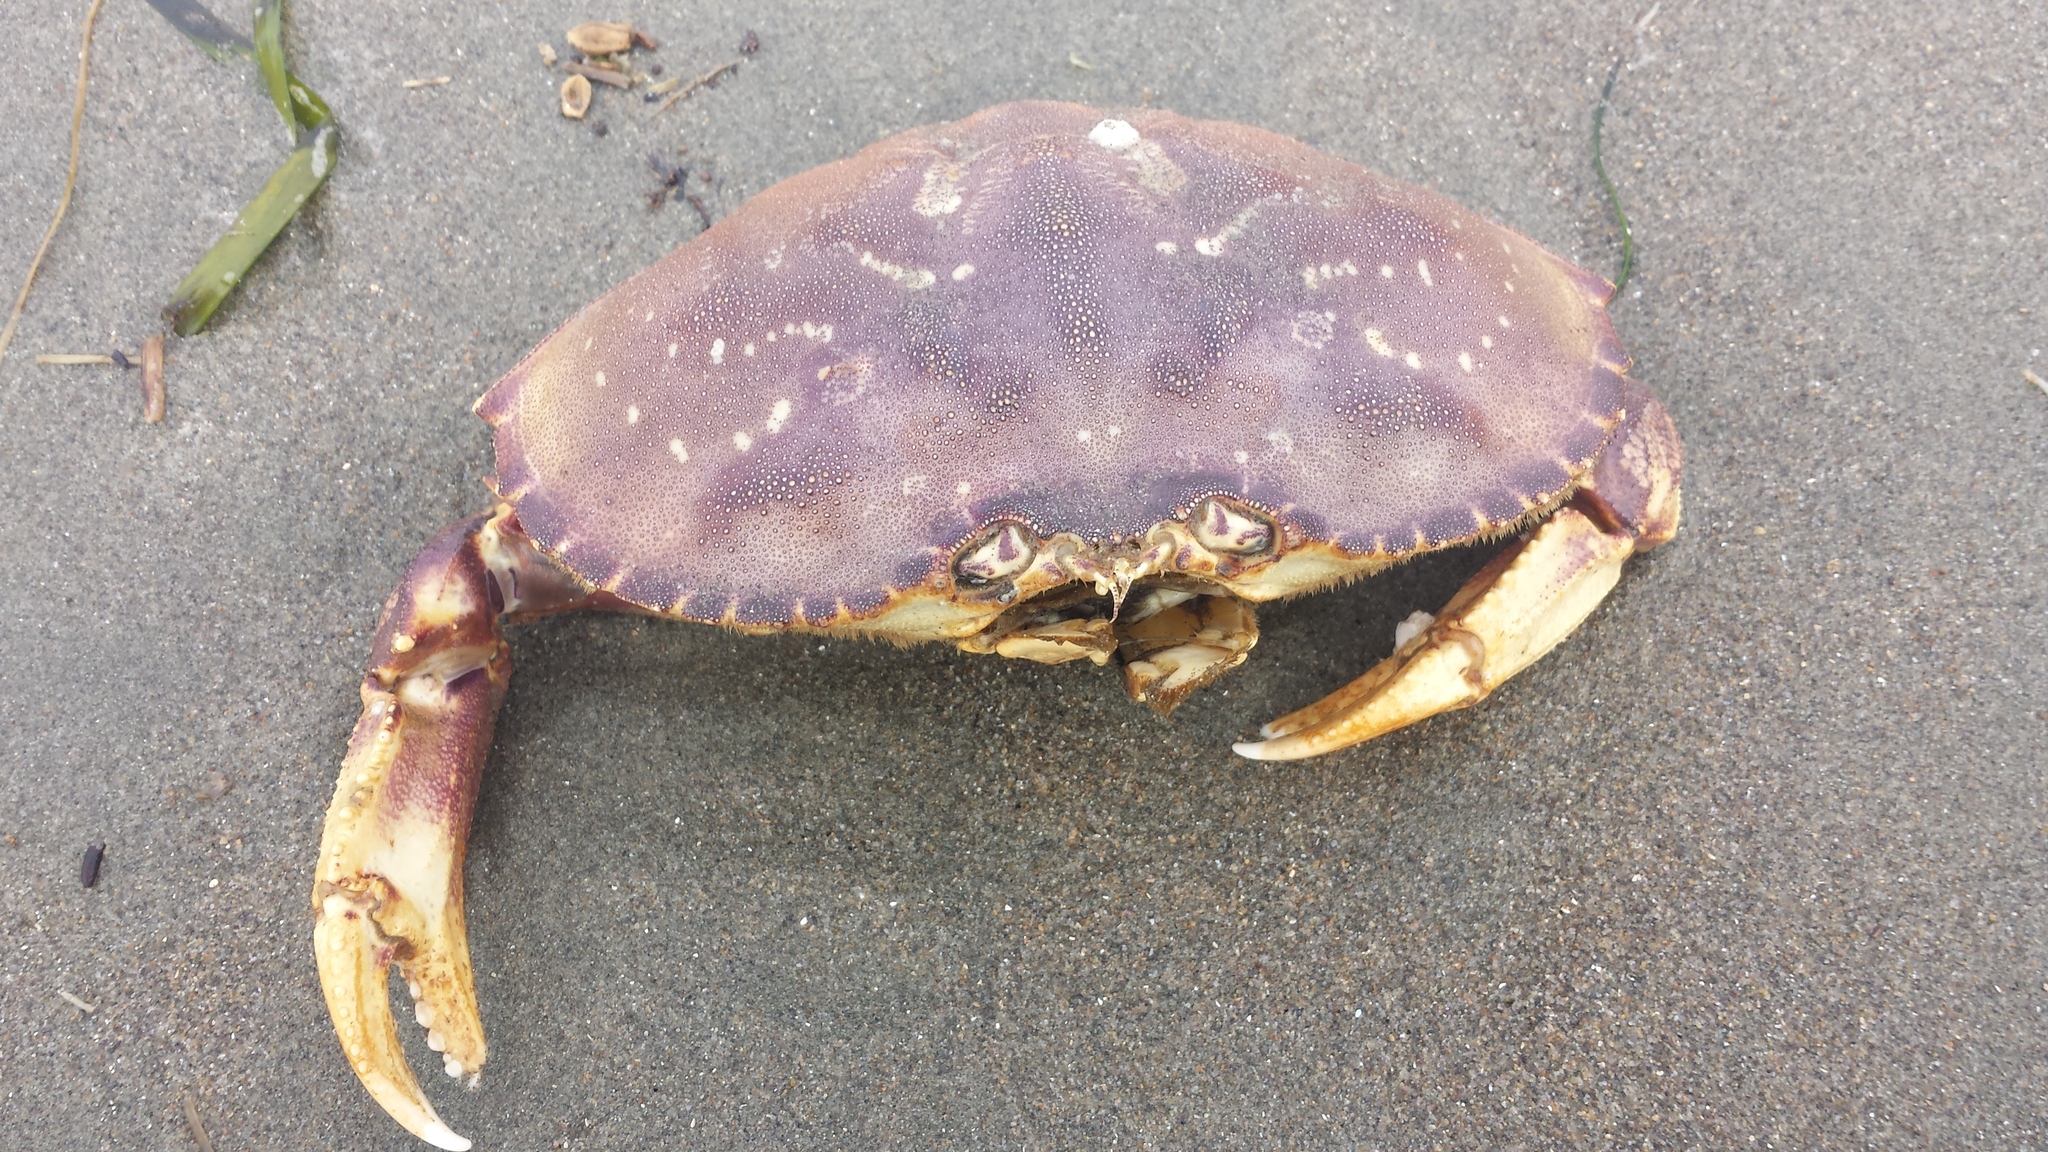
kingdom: Animalia
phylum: Arthropoda
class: Malacostraca
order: Decapoda
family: Cancridae
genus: Metacarcinus
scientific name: Metacarcinus magister
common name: Californian crab
